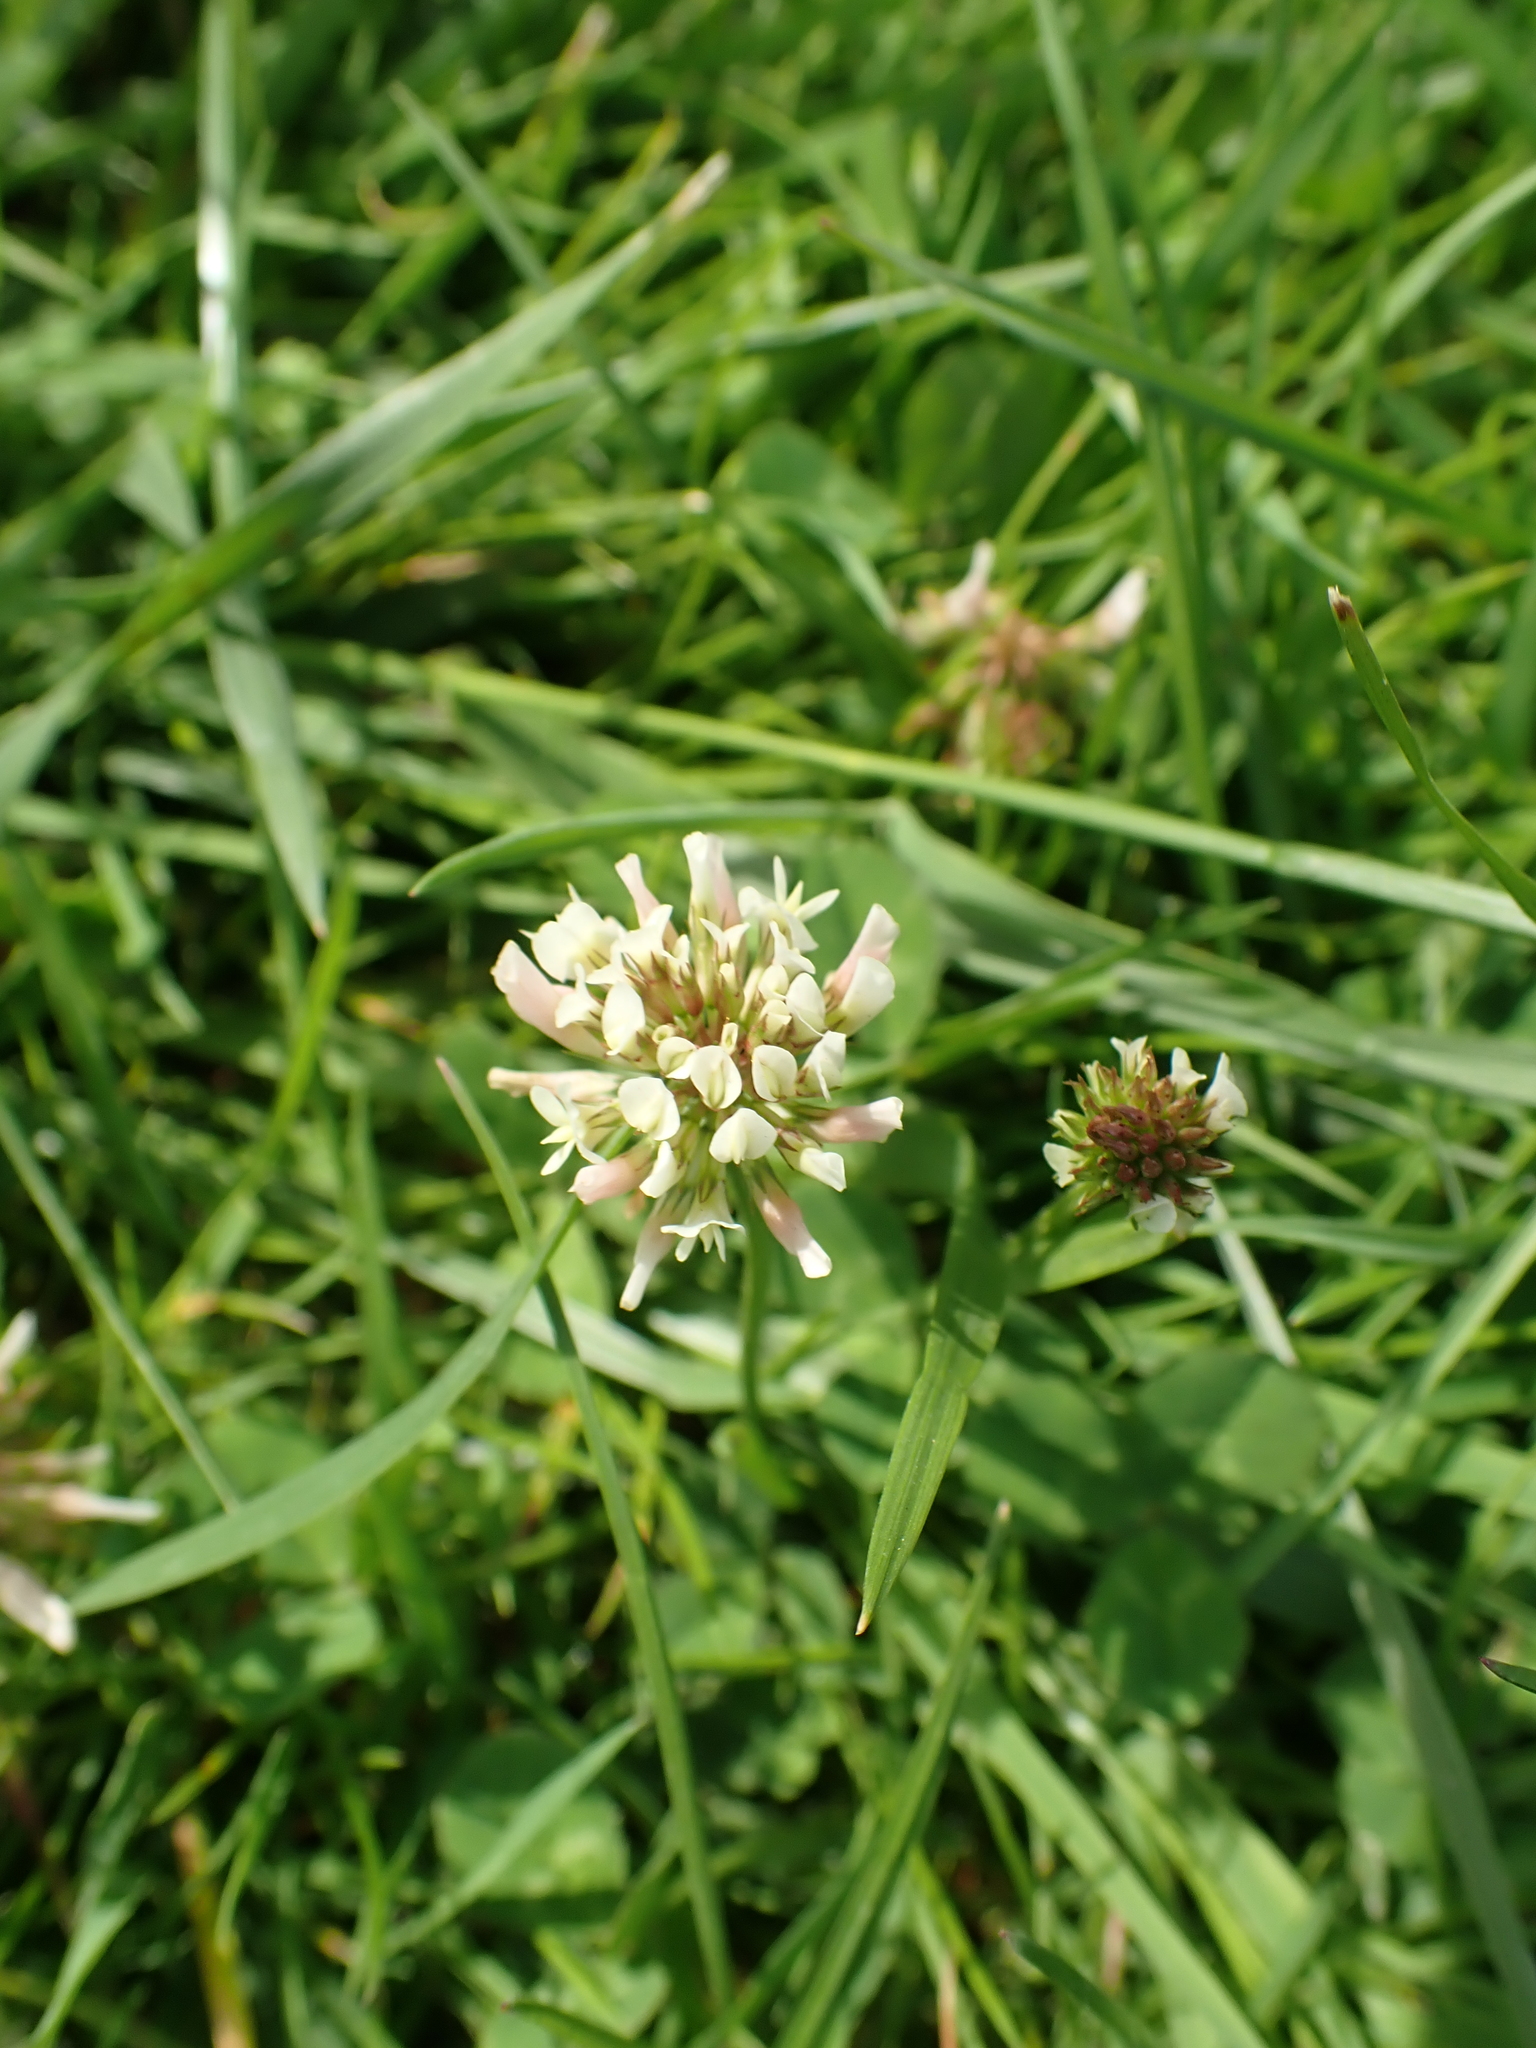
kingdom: Plantae
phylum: Tracheophyta
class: Magnoliopsida
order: Fabales
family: Fabaceae
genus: Trifolium
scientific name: Trifolium repens
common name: White clover
